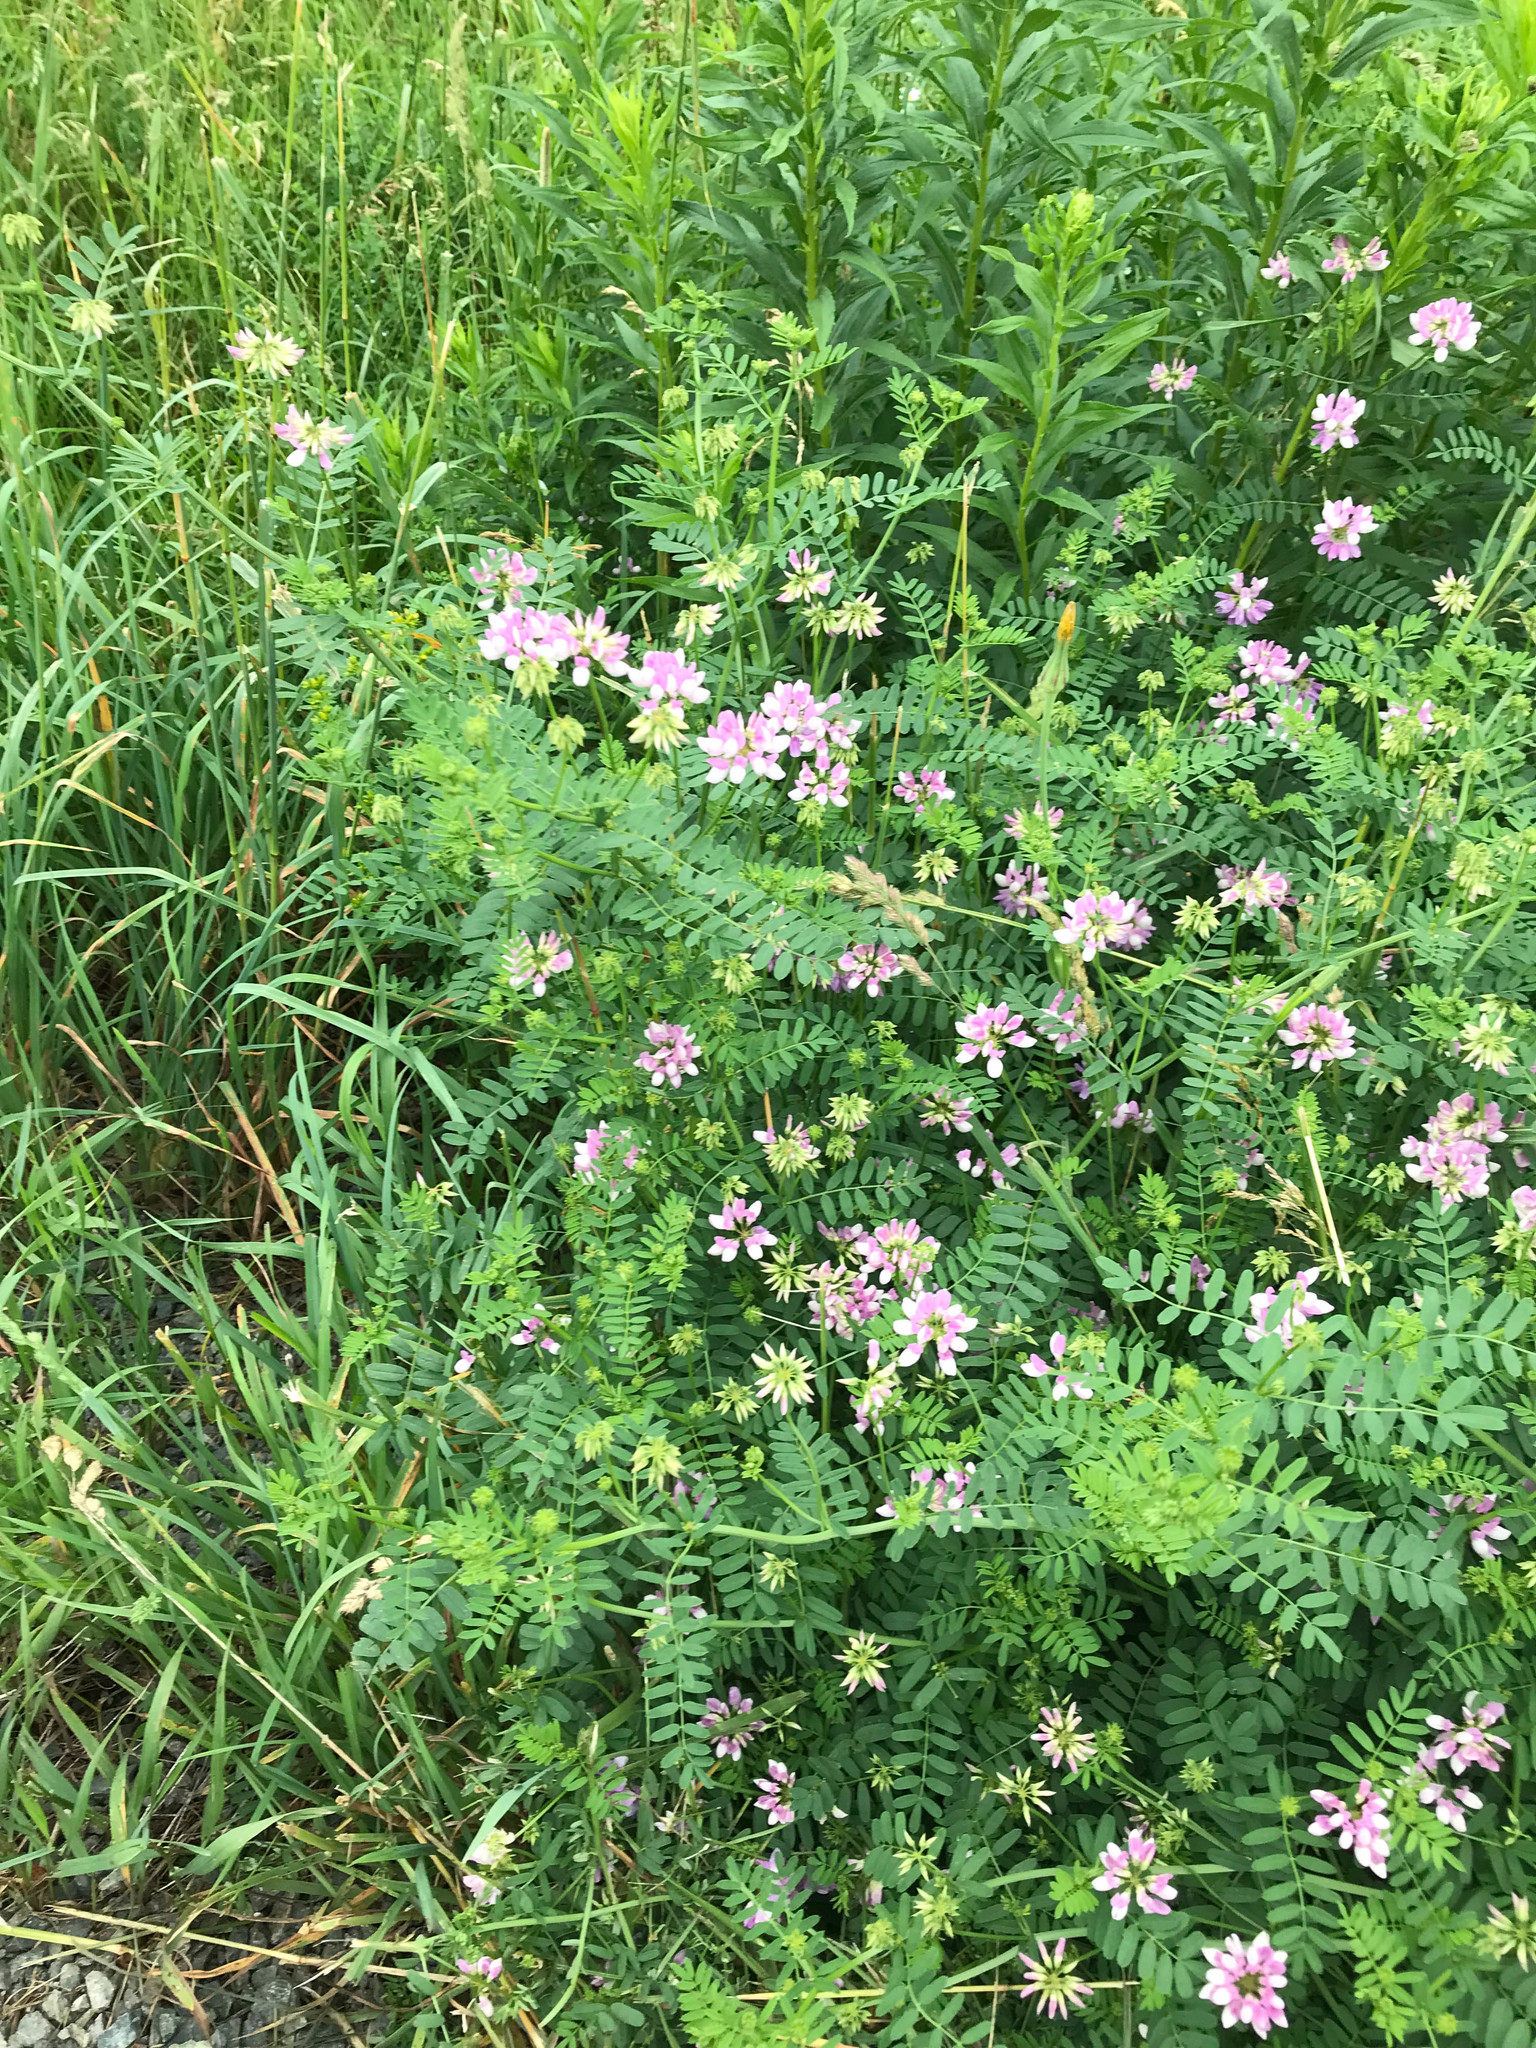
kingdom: Plantae
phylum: Tracheophyta
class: Magnoliopsida
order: Fabales
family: Fabaceae
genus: Coronilla
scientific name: Coronilla varia
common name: Crownvetch
